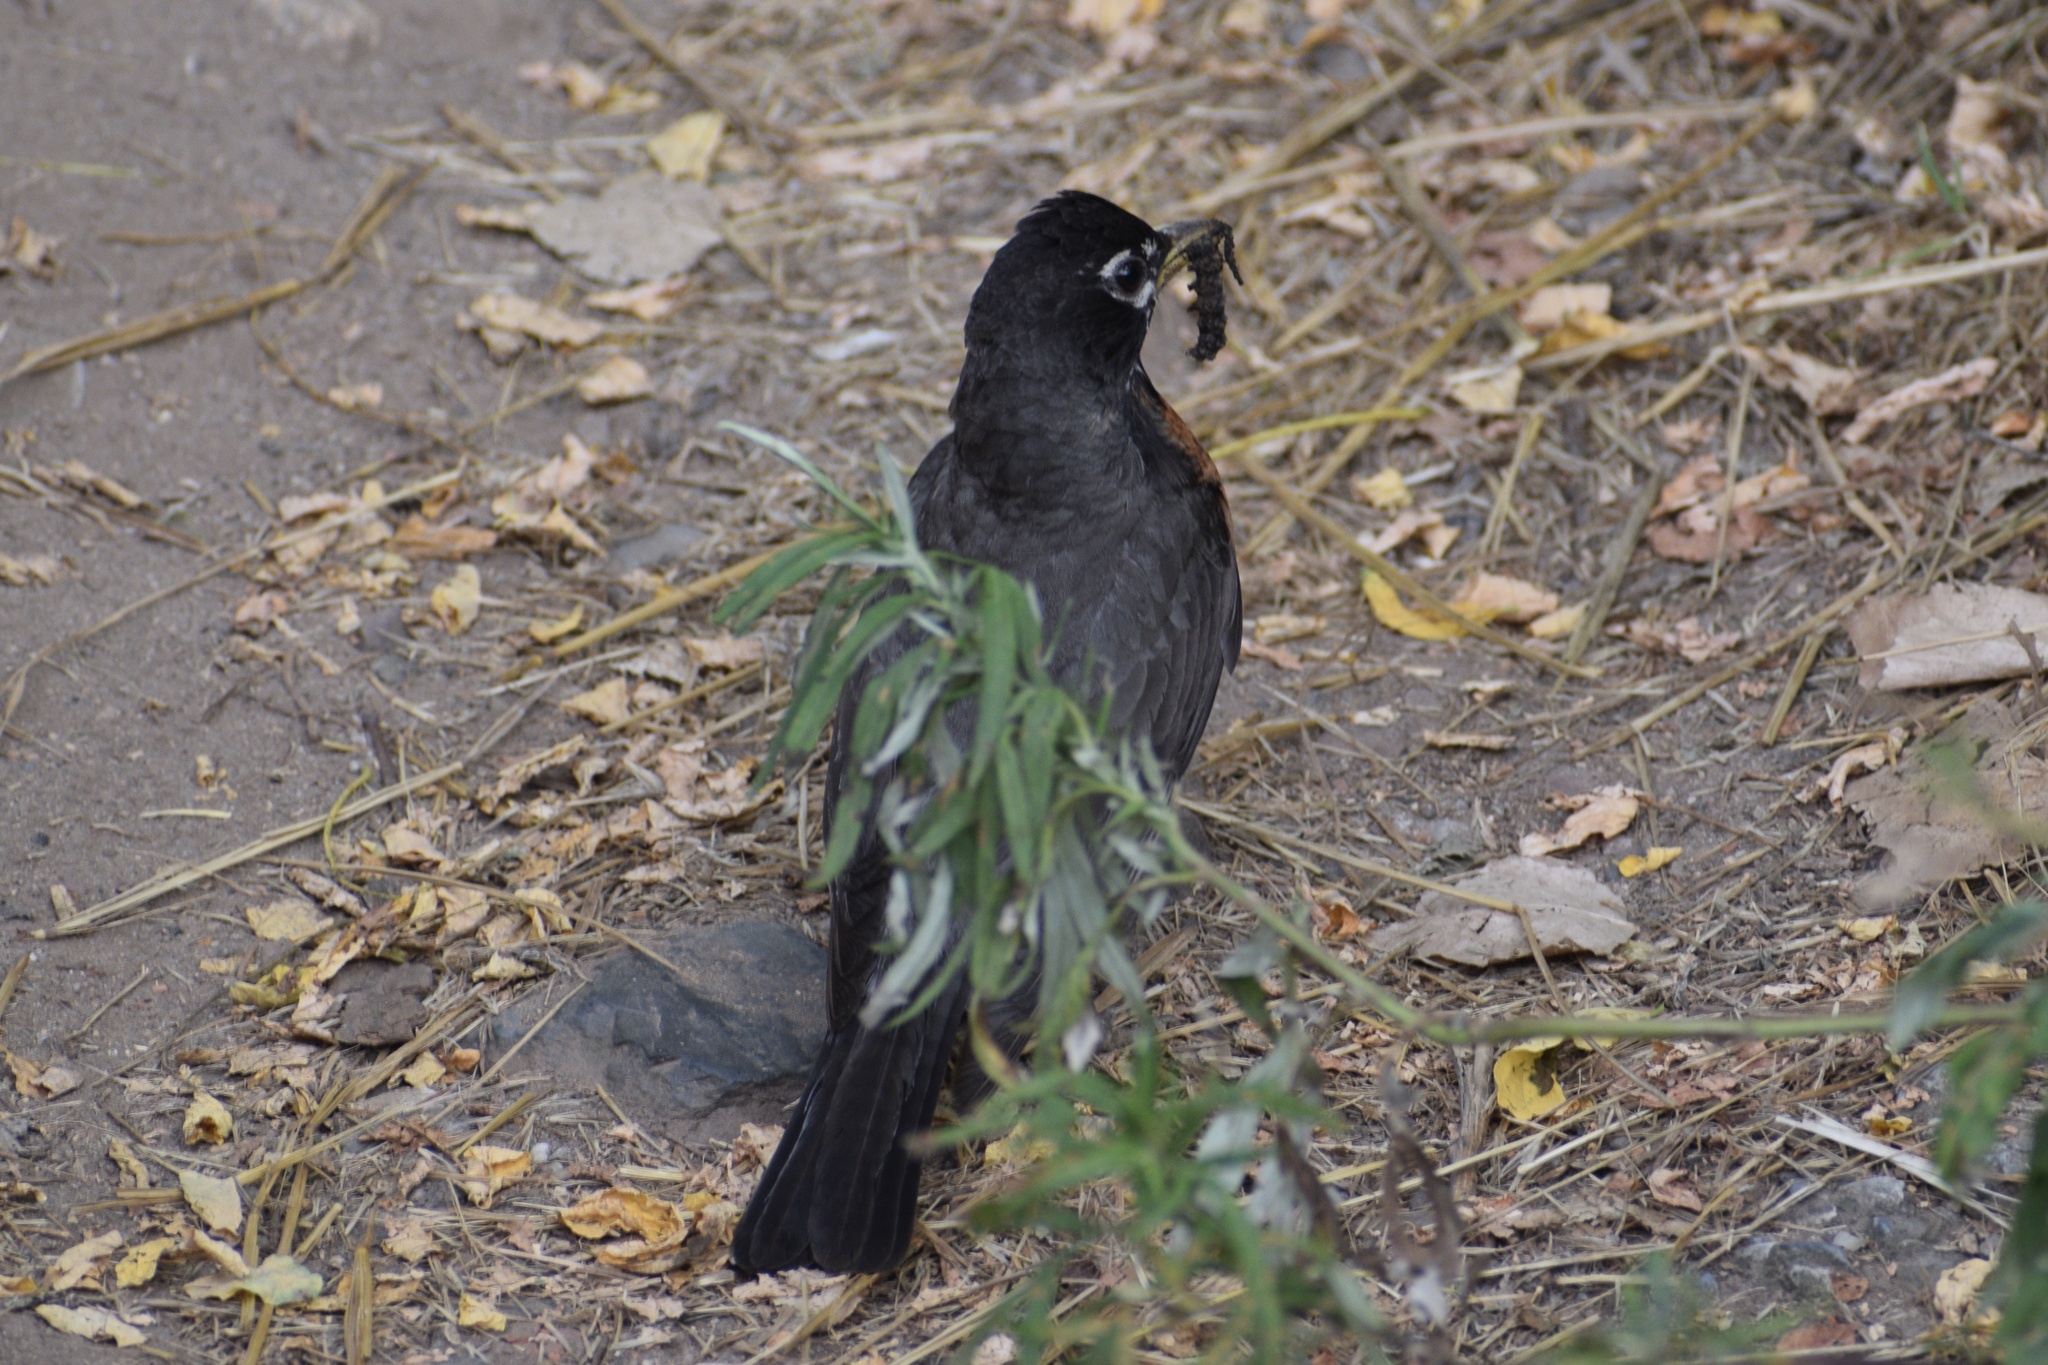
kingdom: Animalia
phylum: Chordata
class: Aves
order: Passeriformes
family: Turdidae
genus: Turdus
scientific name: Turdus migratorius
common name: American robin
